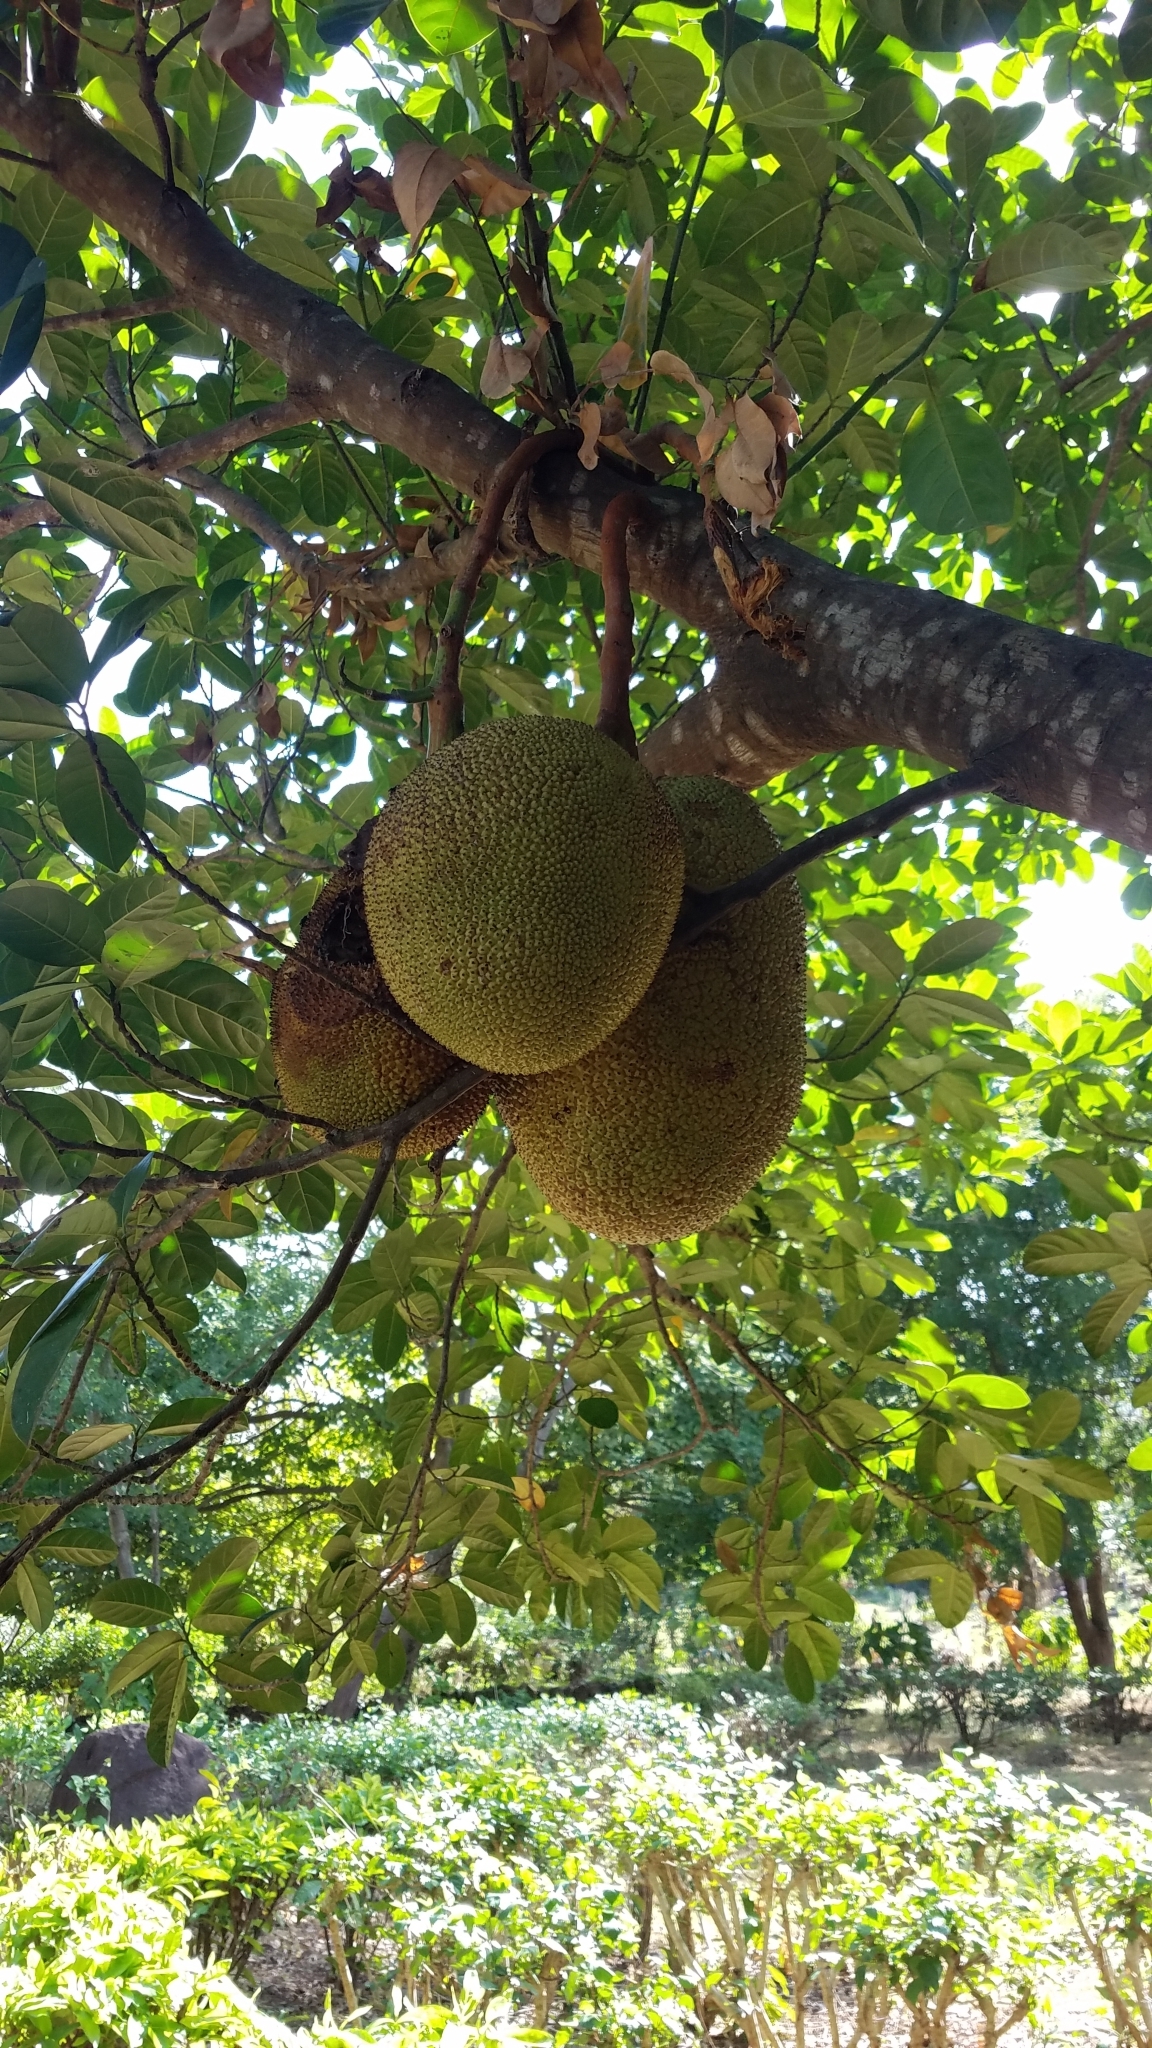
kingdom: Plantae
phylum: Tracheophyta
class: Magnoliopsida
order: Rosales
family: Moraceae
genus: Artocarpus
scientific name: Artocarpus heterophyllus
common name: Jackfruit
